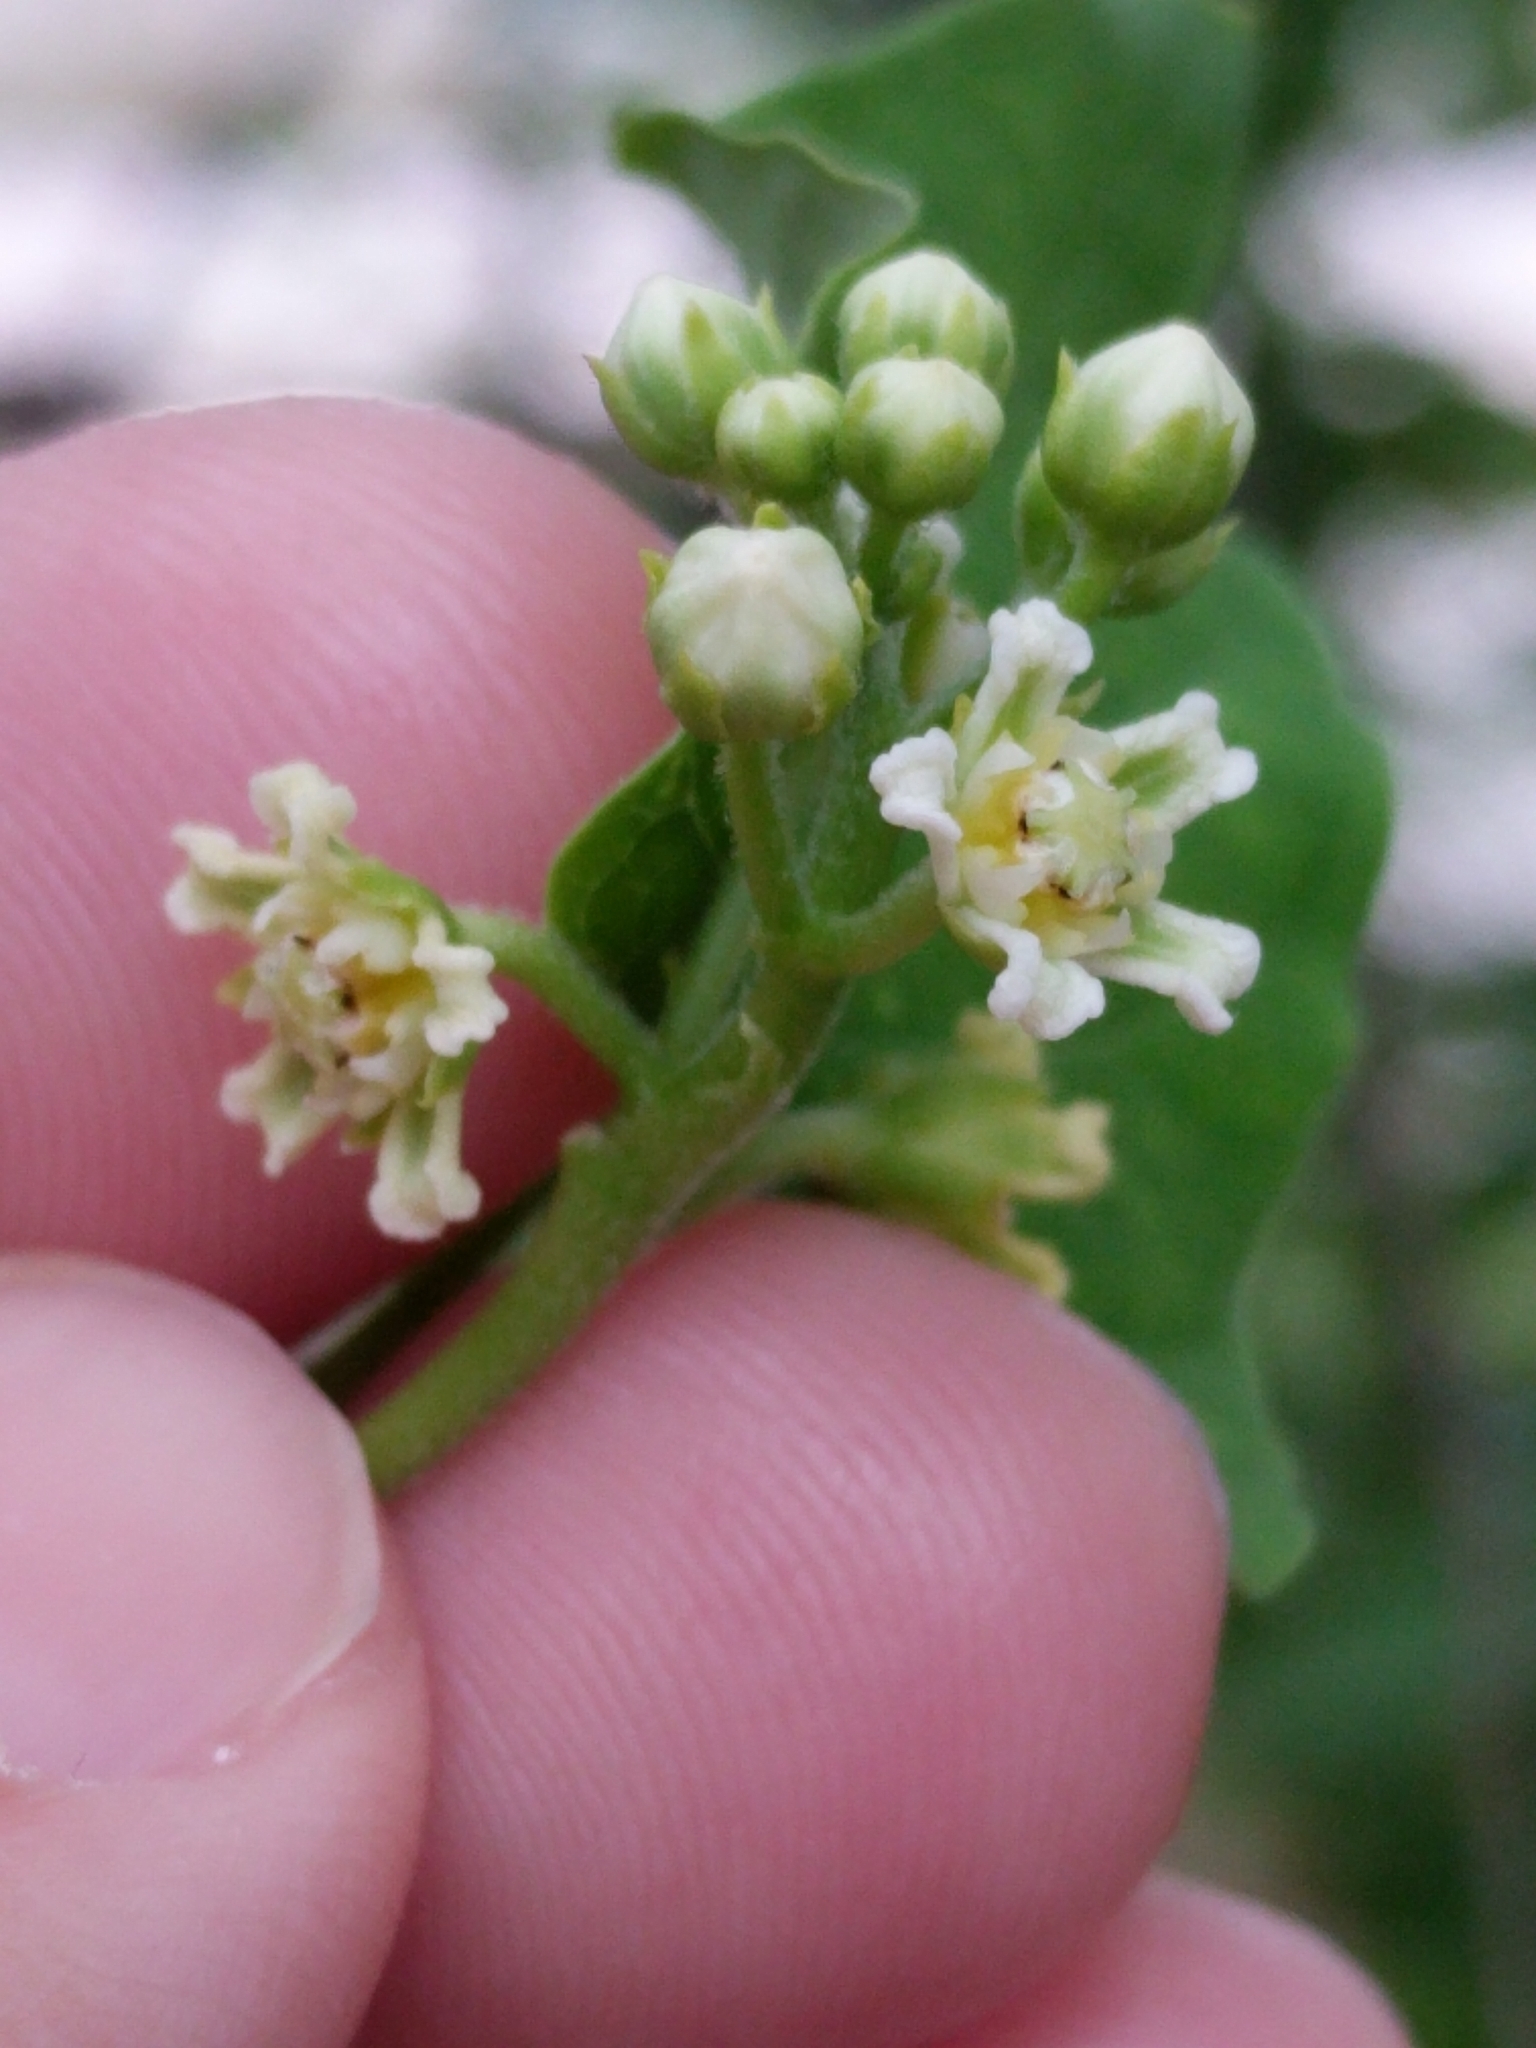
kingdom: Plantae
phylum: Tracheophyta
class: Magnoliopsida
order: Gentianales
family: Apocynaceae
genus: Cynanchum
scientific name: Cynanchum racemosum
